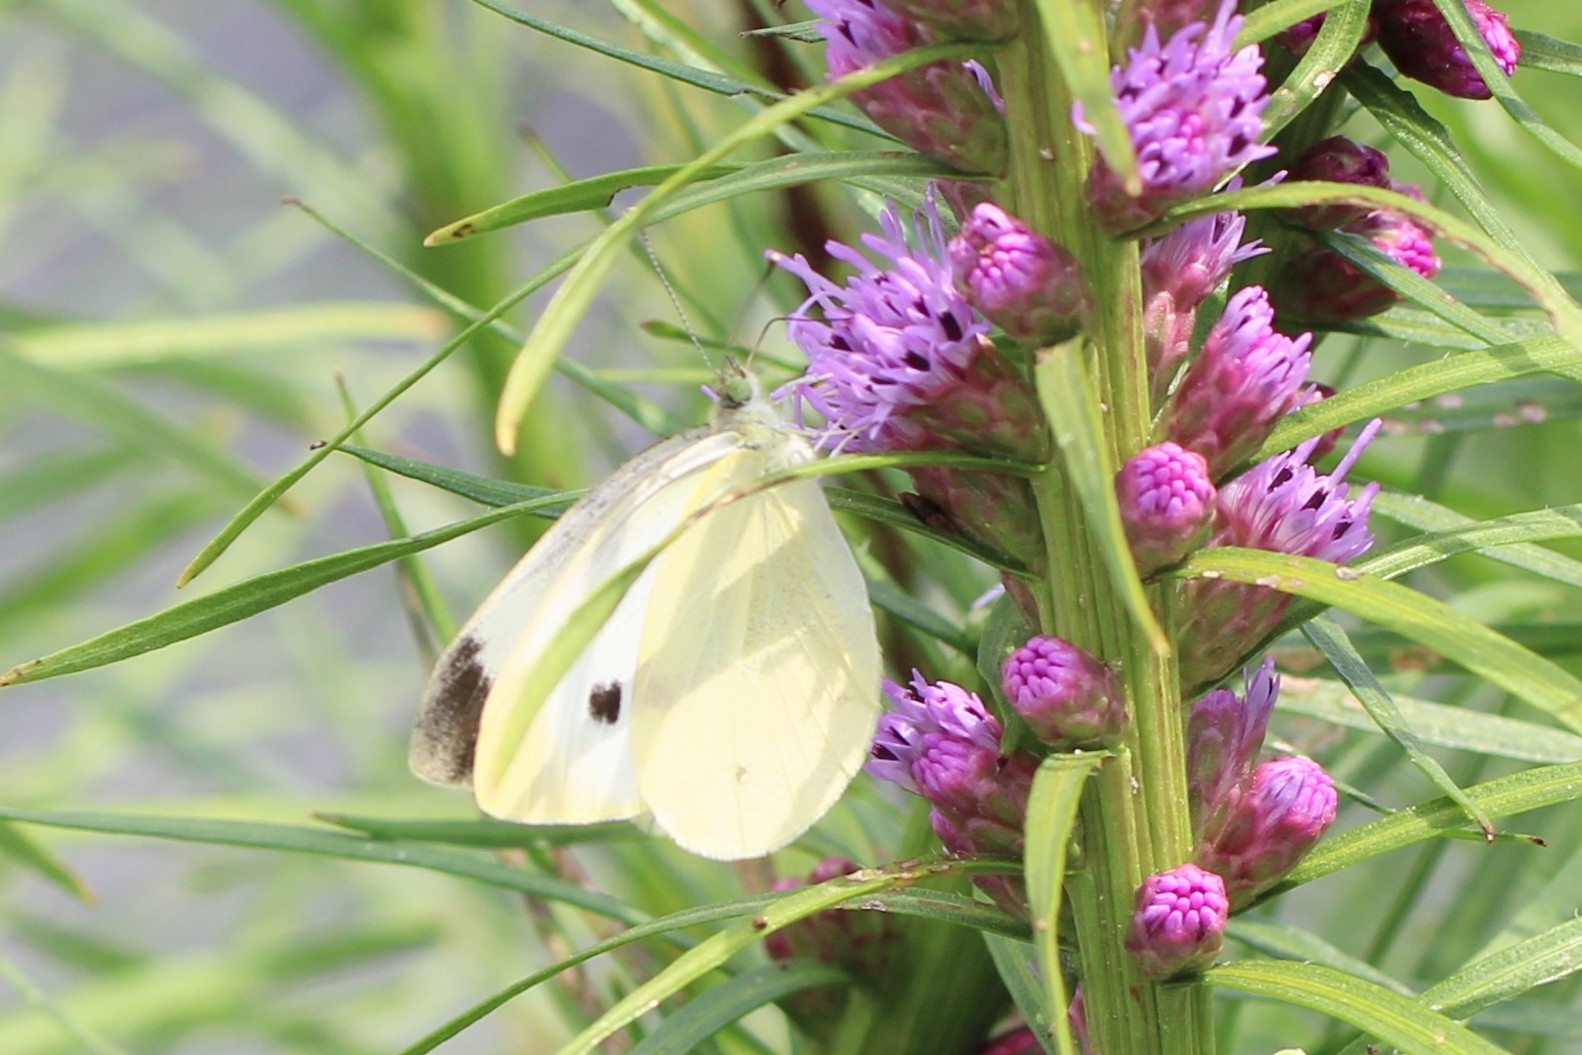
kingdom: Animalia
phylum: Arthropoda
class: Insecta
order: Lepidoptera
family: Pieridae
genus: Pieris
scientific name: Pieris rapae
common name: Small white
